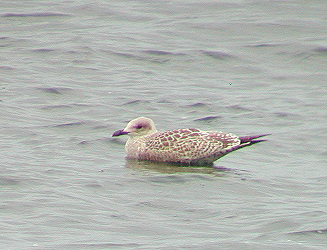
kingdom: Animalia
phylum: Chordata
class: Aves
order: Charadriiformes
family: Laridae
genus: Larus
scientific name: Larus argentatus
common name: Herring gull
